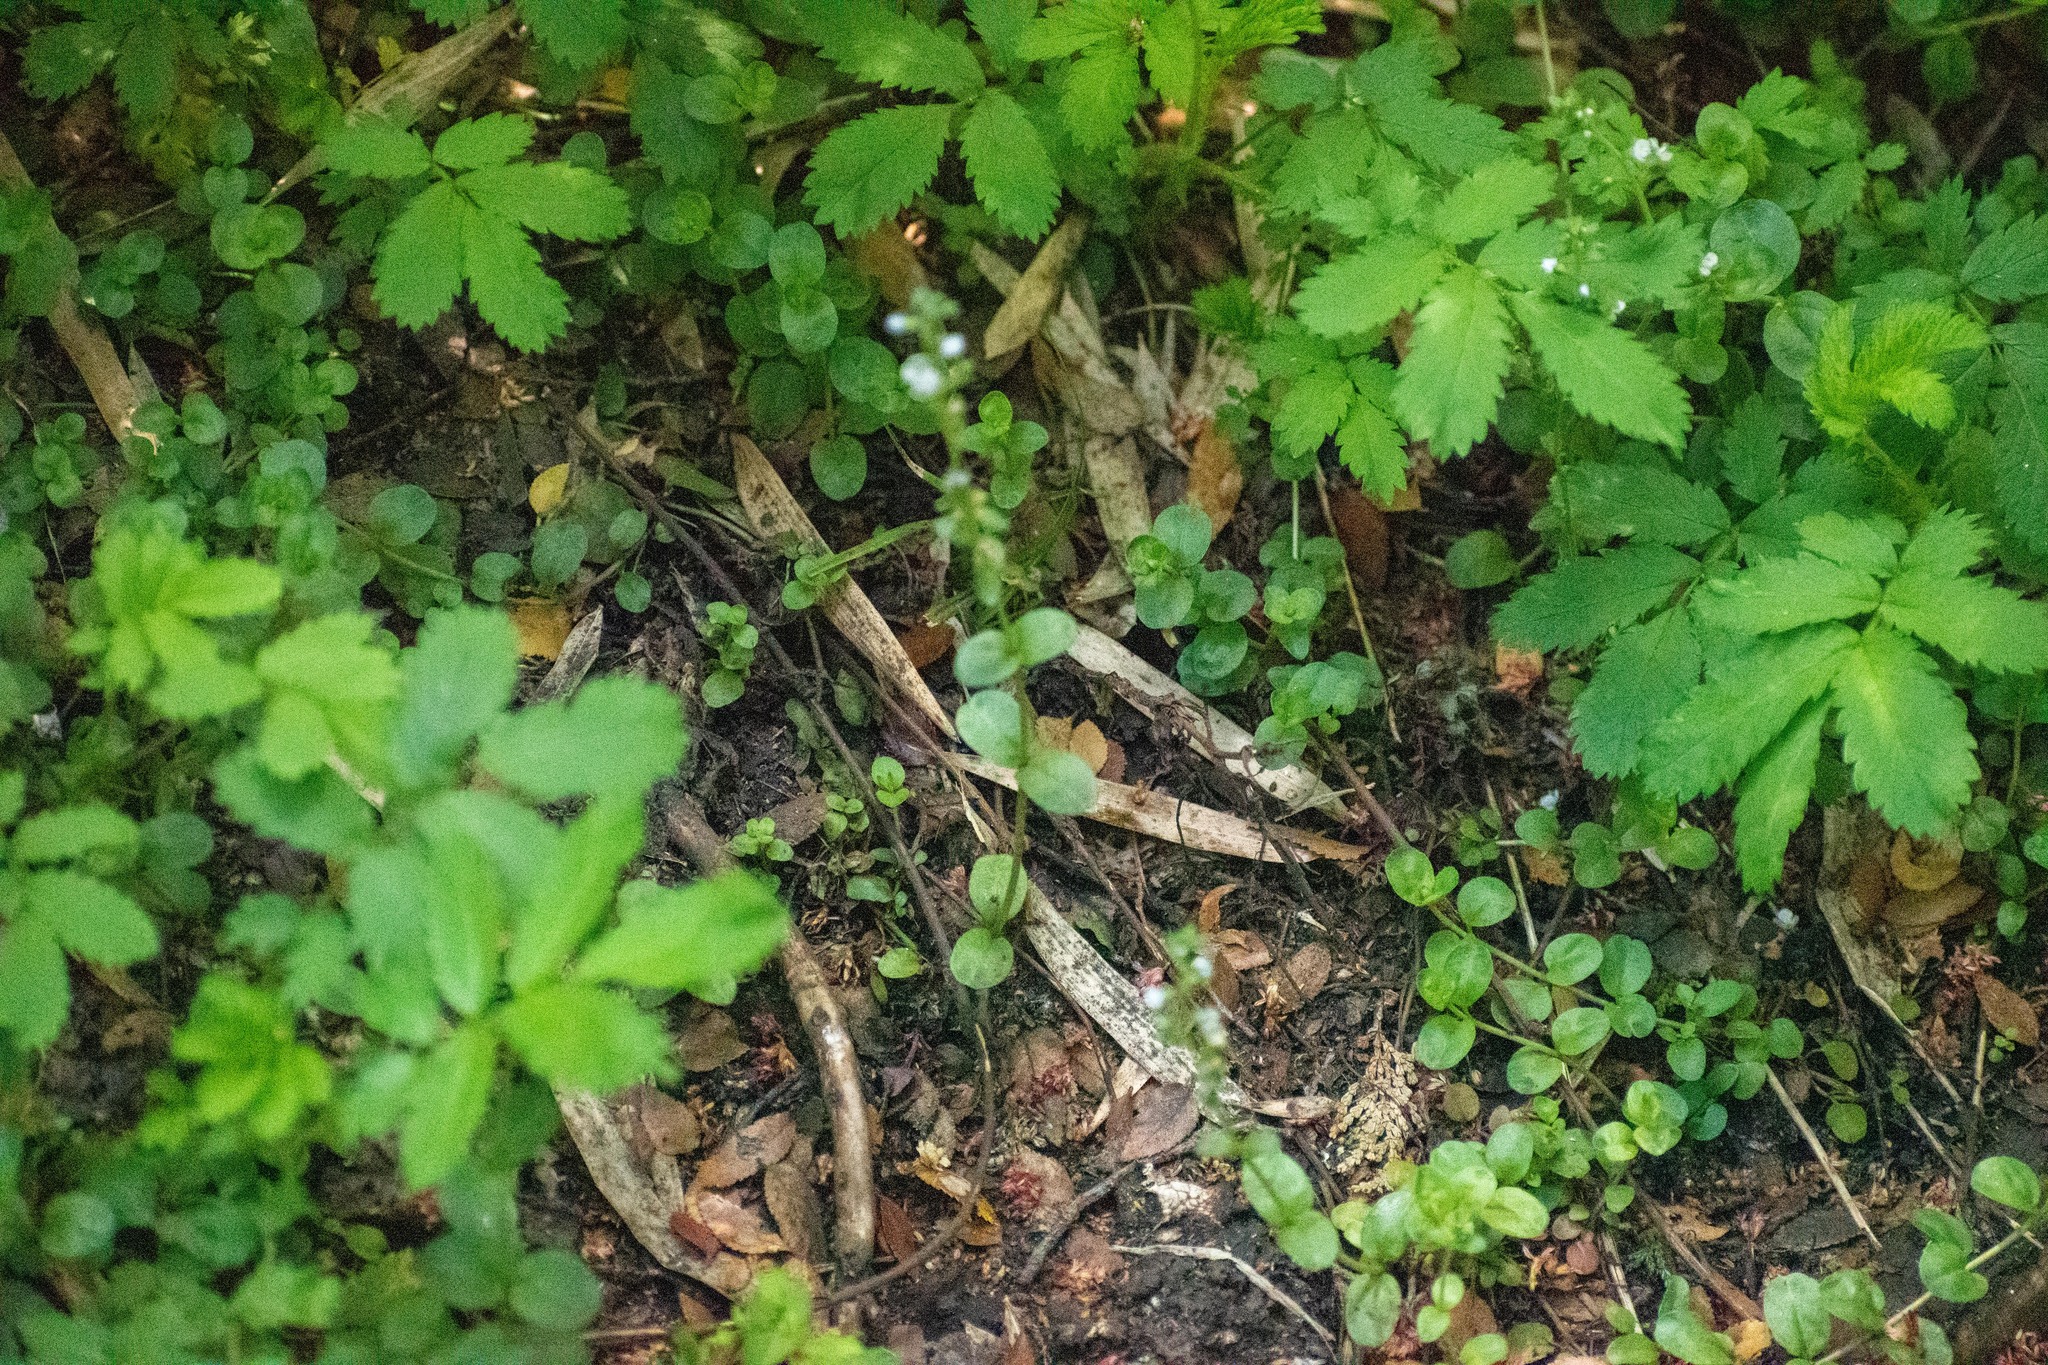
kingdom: Plantae
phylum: Tracheophyta
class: Magnoliopsida
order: Lamiales
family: Plantaginaceae
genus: Veronica
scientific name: Veronica serpyllifolia
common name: Thyme-leaved speedwell
